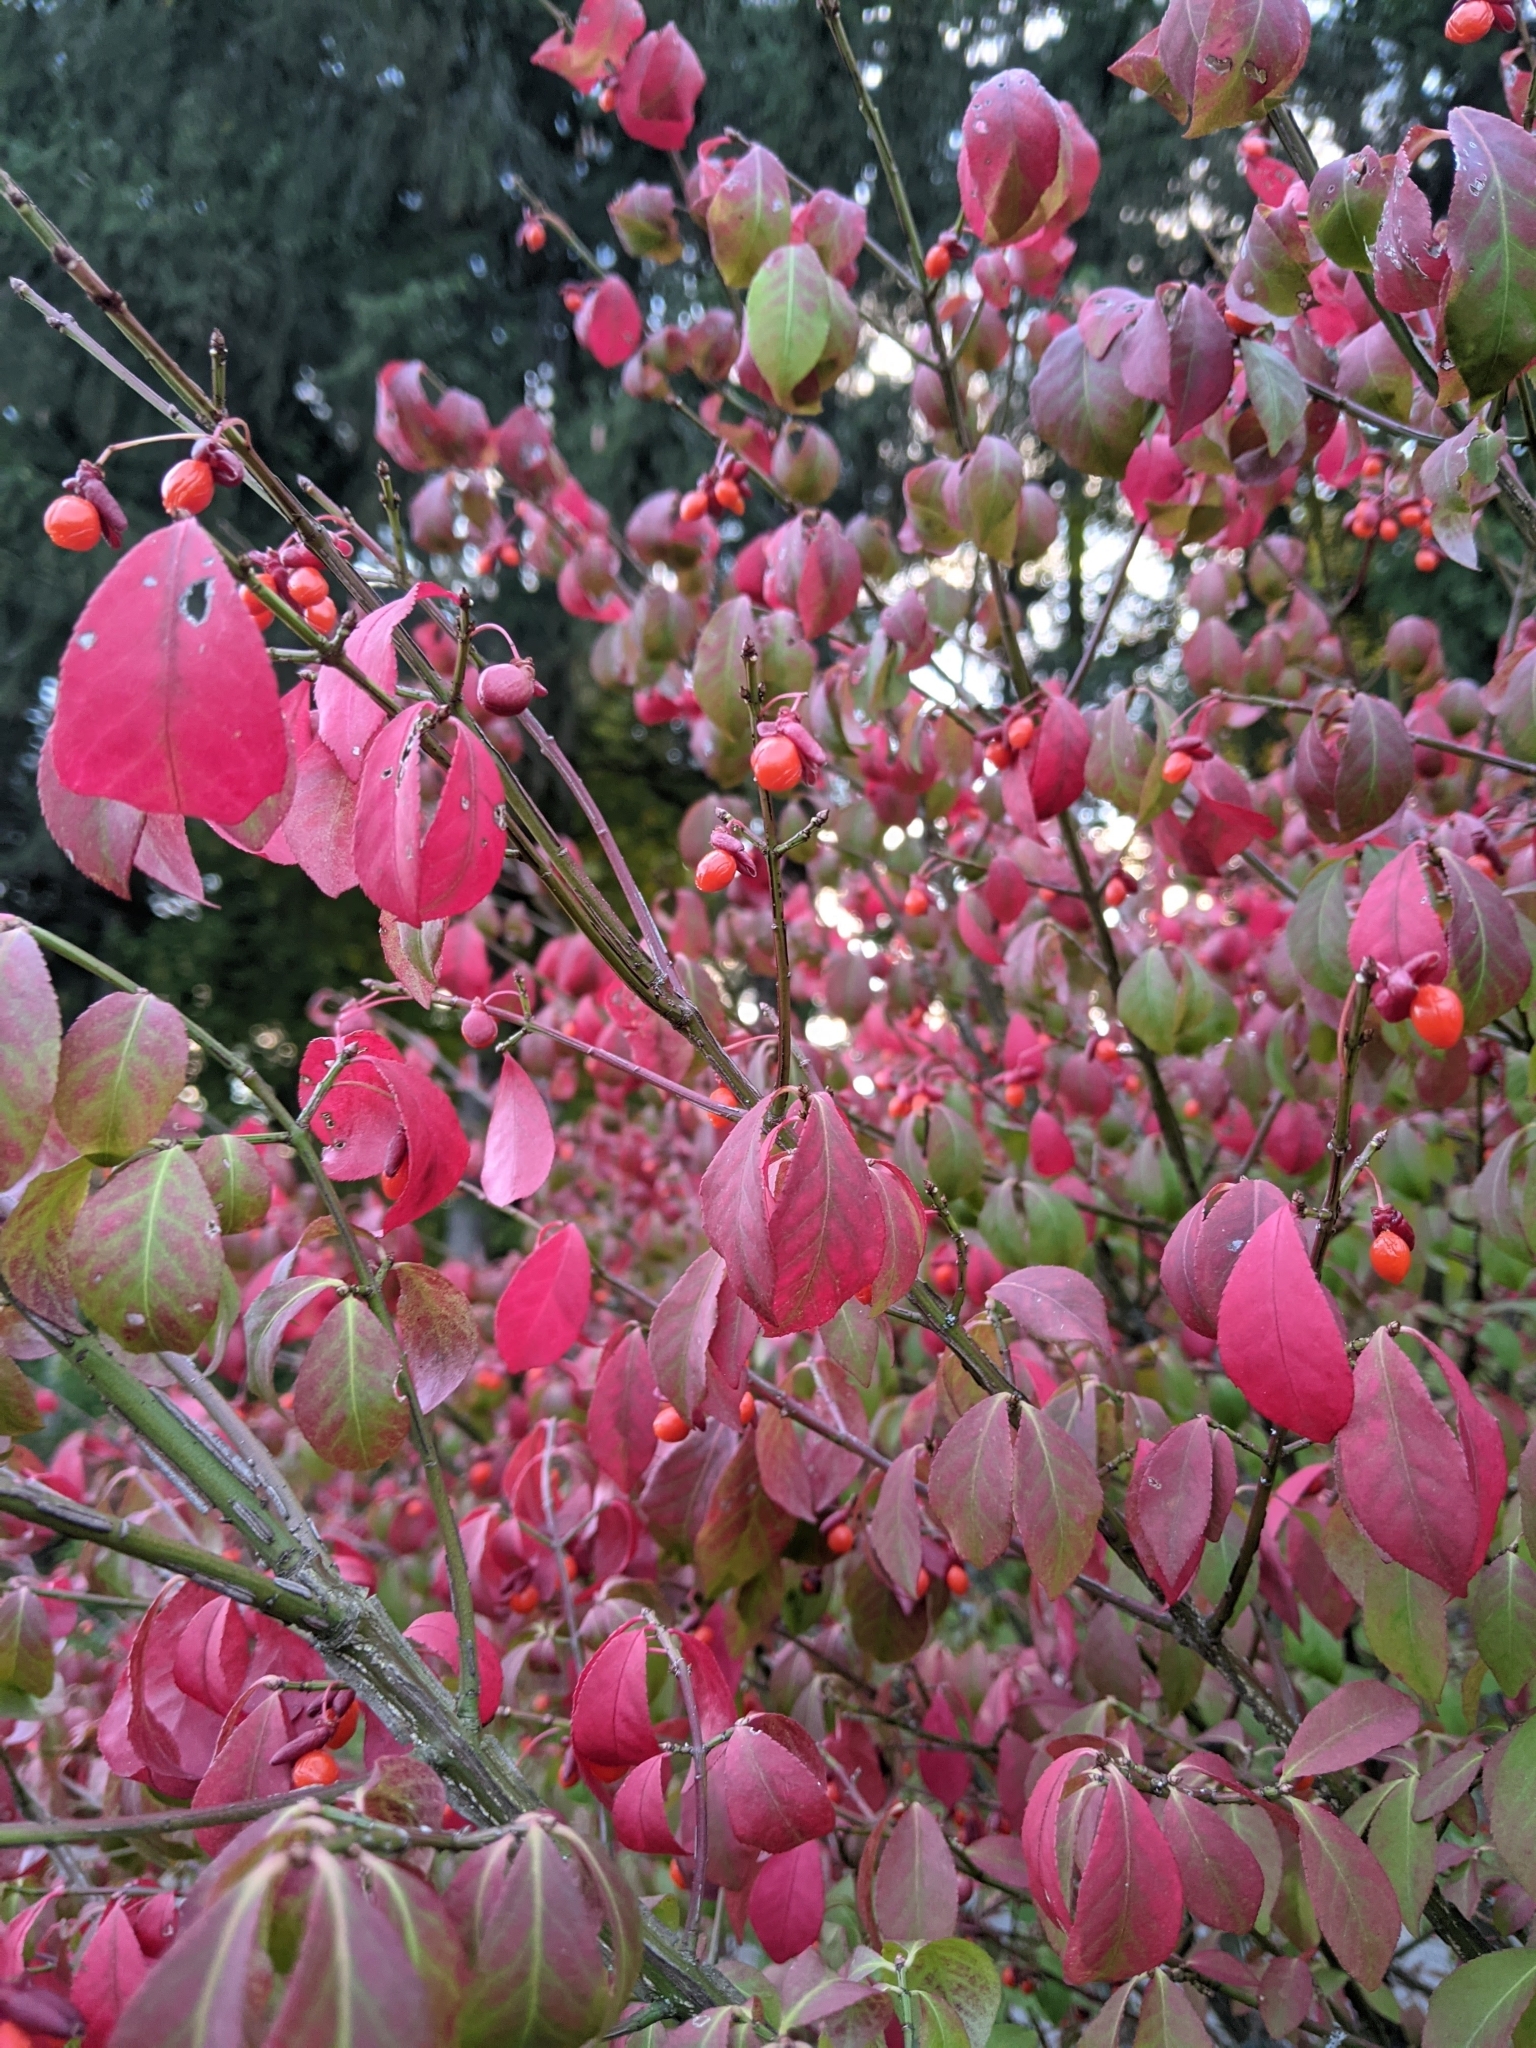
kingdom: Plantae
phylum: Tracheophyta
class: Magnoliopsida
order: Celastrales
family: Celastraceae
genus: Euonymus
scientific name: Euonymus alatus
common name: Winged euonymus
